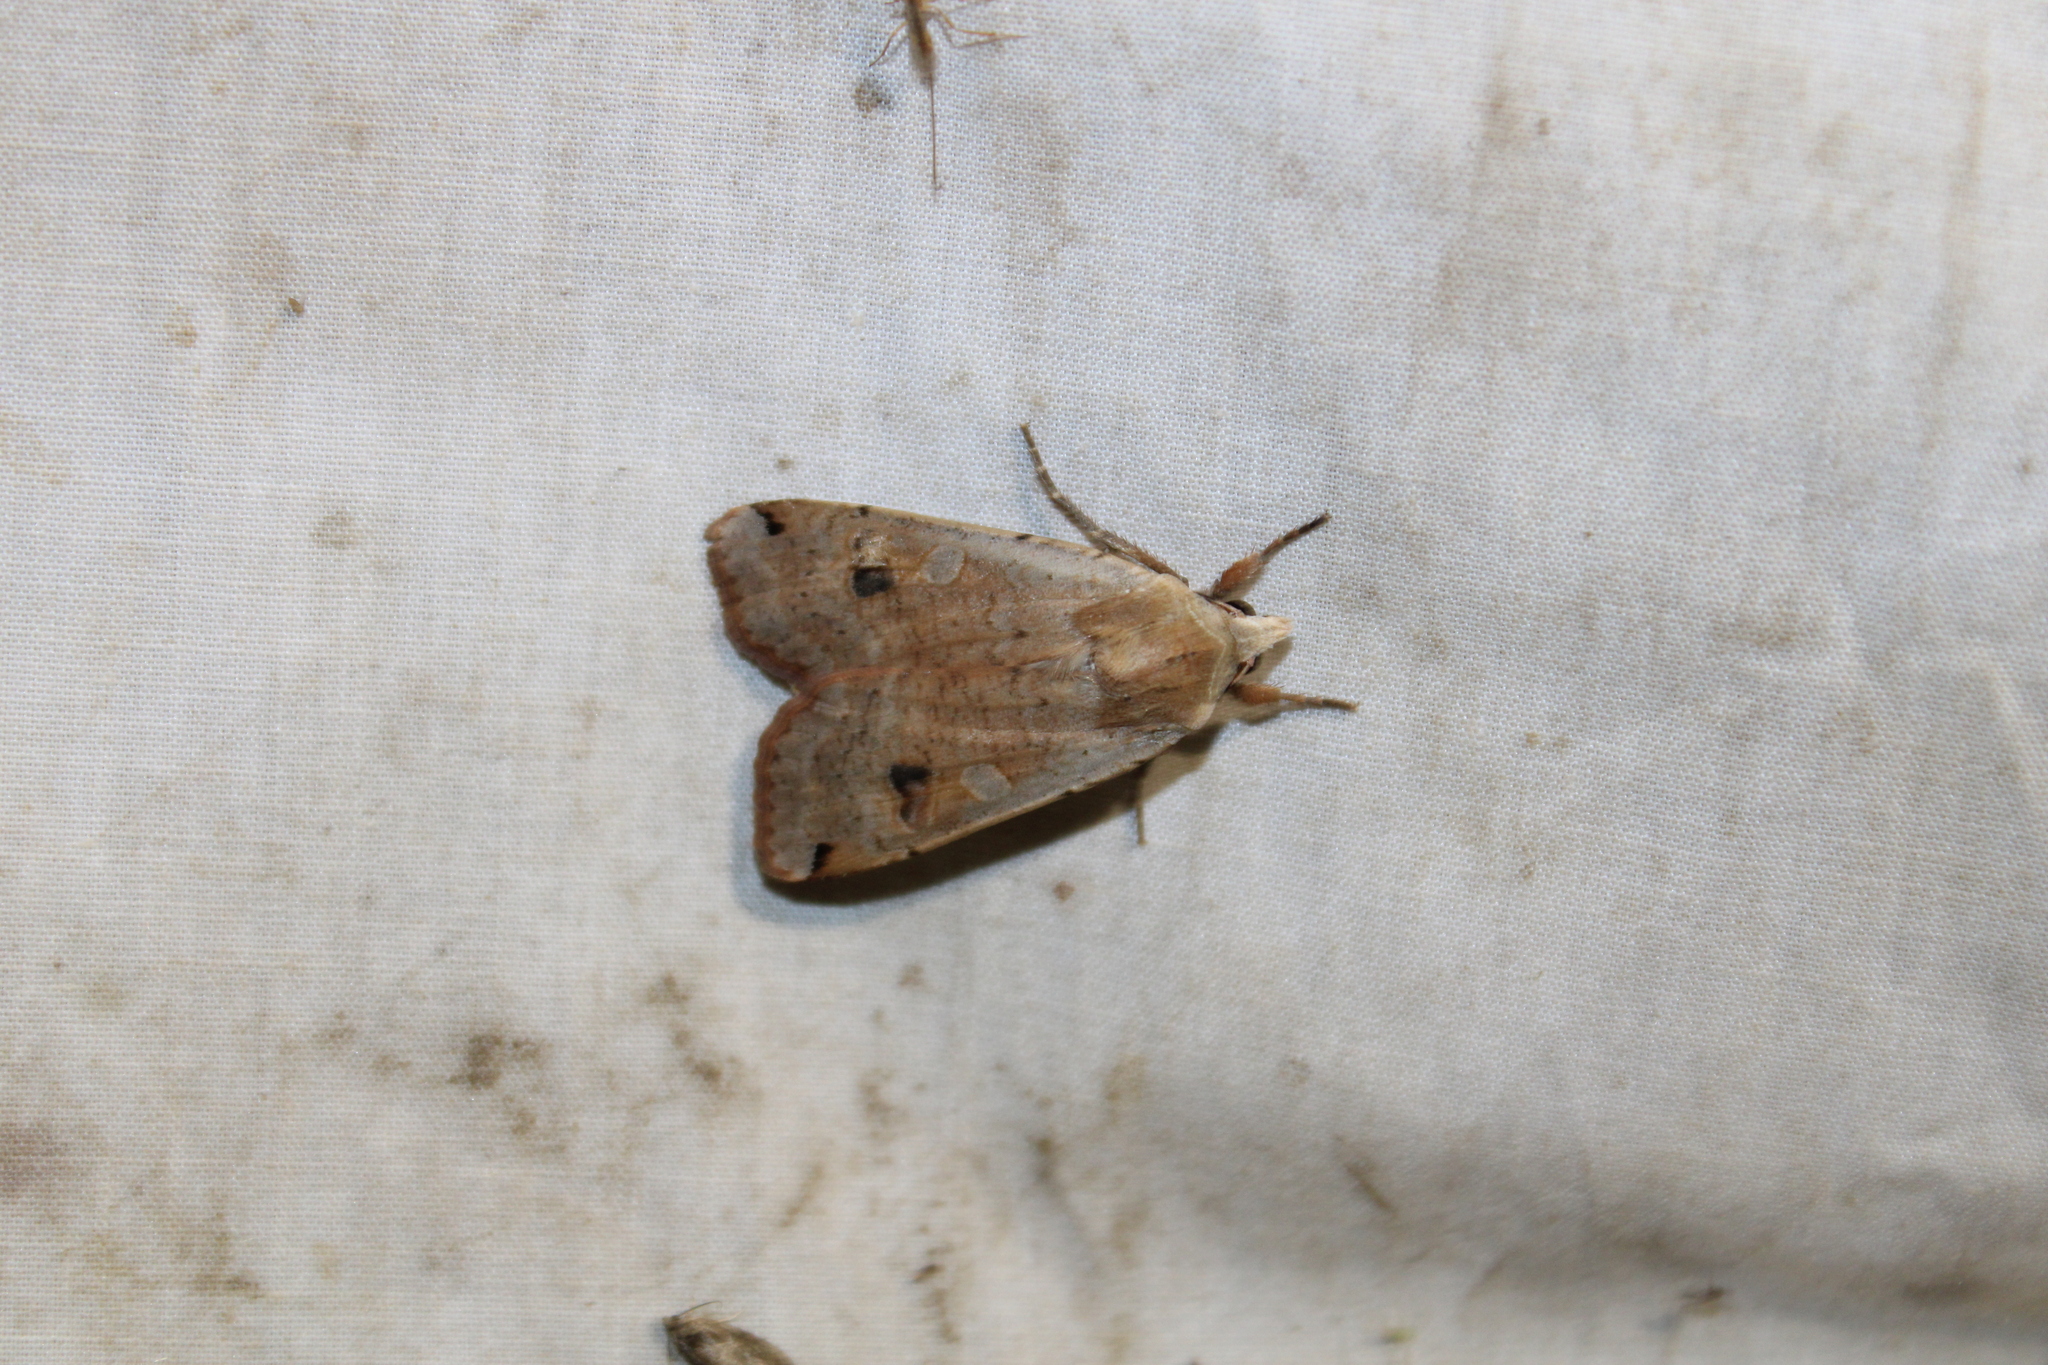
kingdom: Animalia
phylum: Arthropoda
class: Insecta
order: Lepidoptera
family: Noctuidae
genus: Noctua
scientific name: Noctua pronuba
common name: Large yellow underwing
